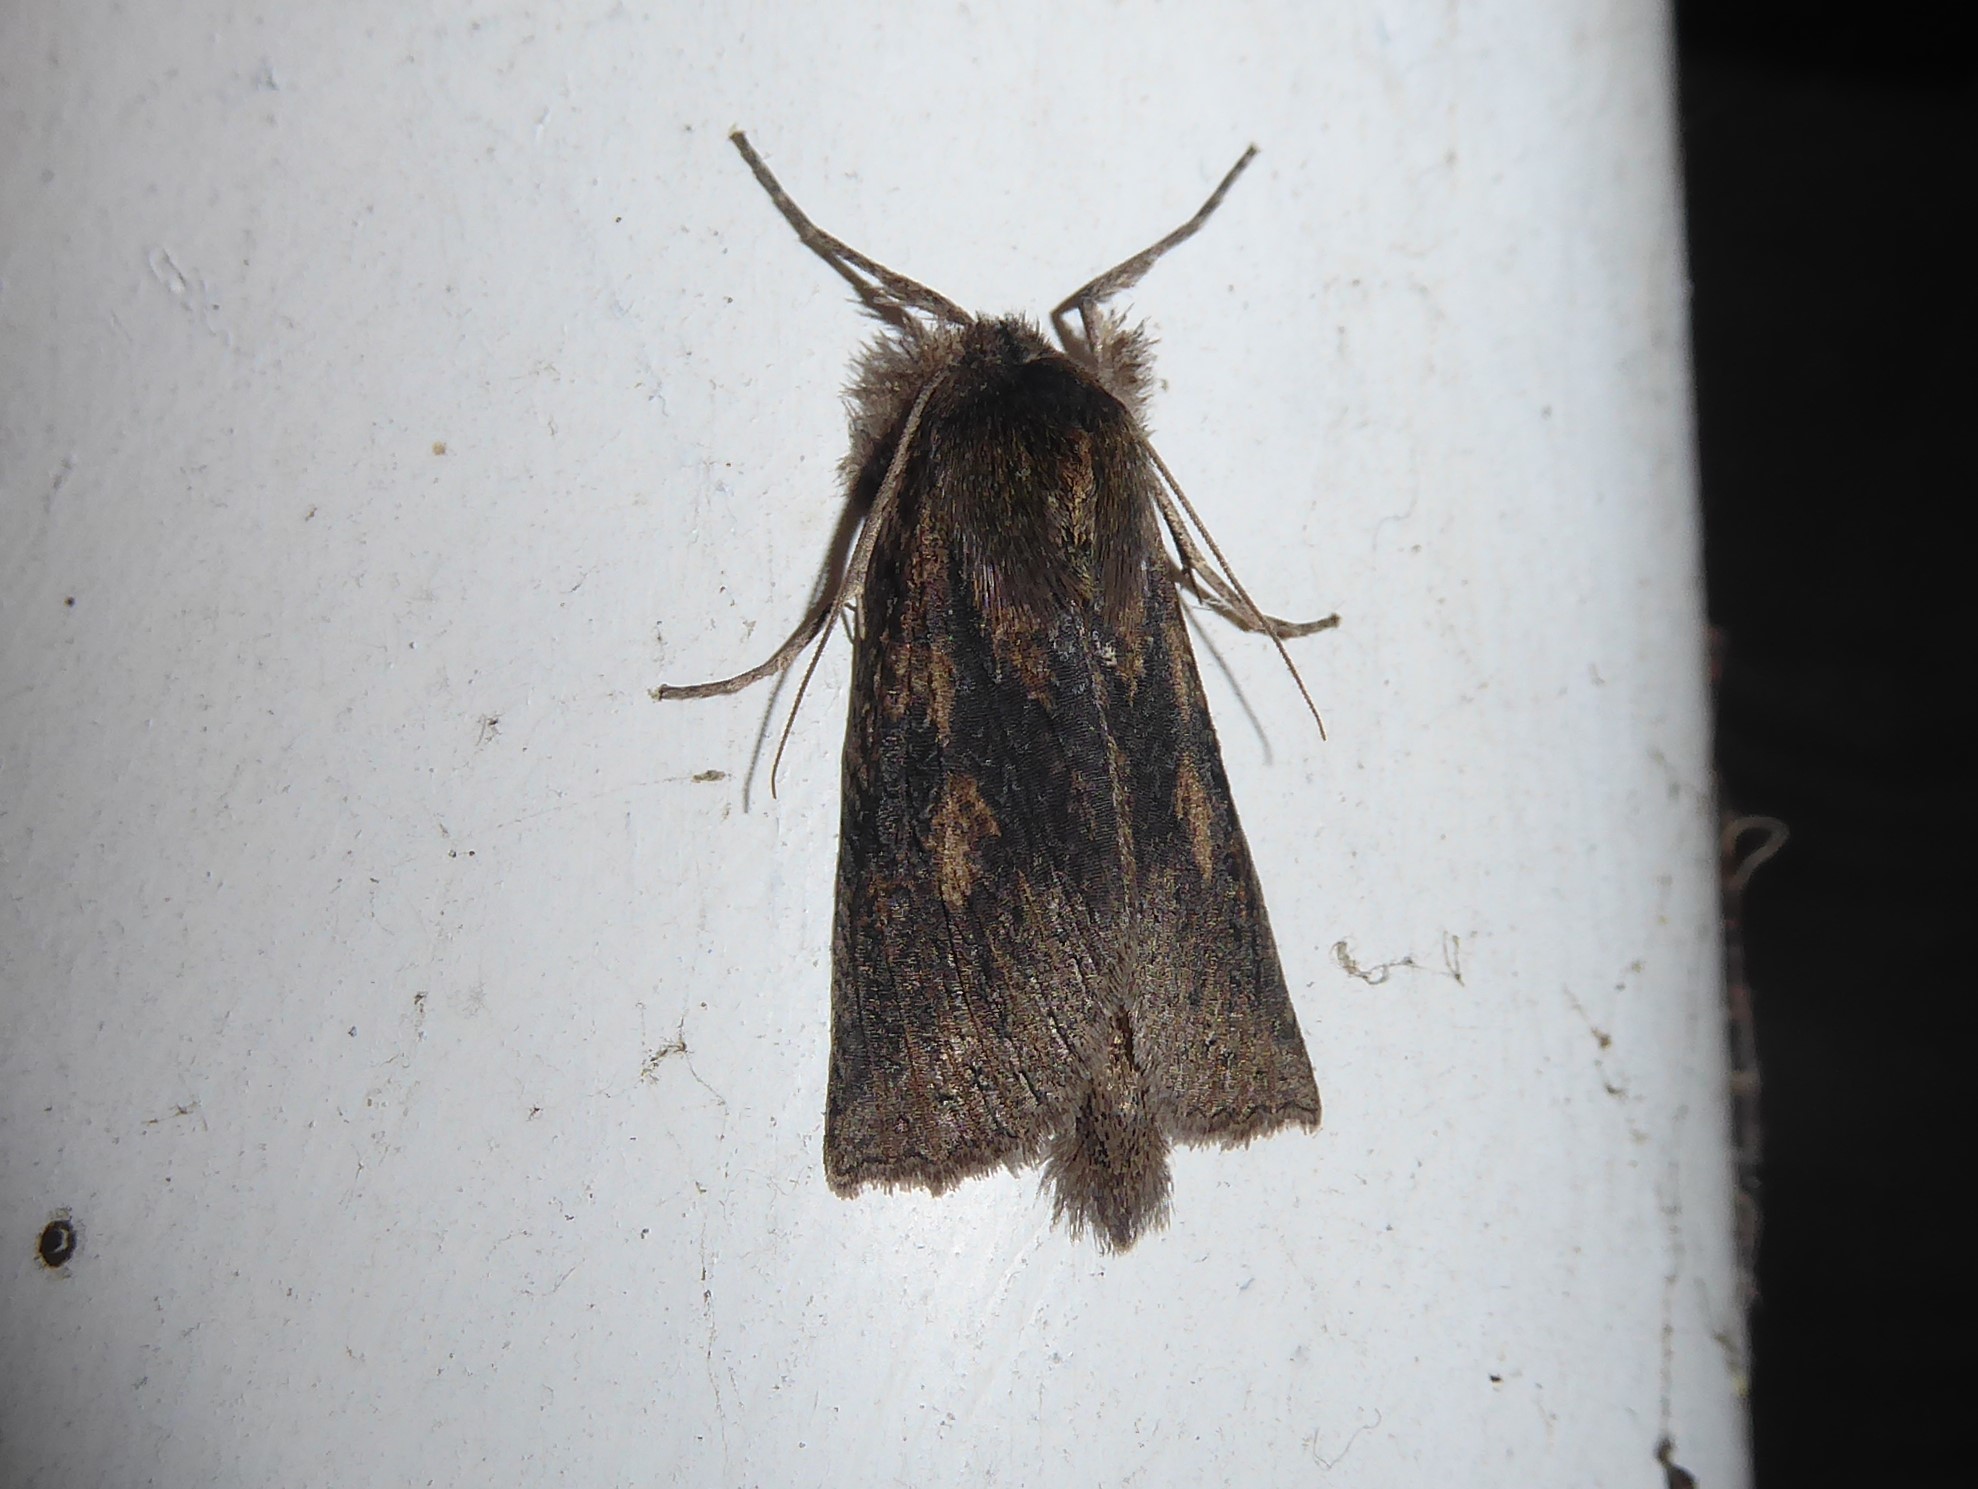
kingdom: Animalia
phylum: Arthropoda
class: Insecta
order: Lepidoptera
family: Geometridae
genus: Declana
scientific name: Declana leptomera
